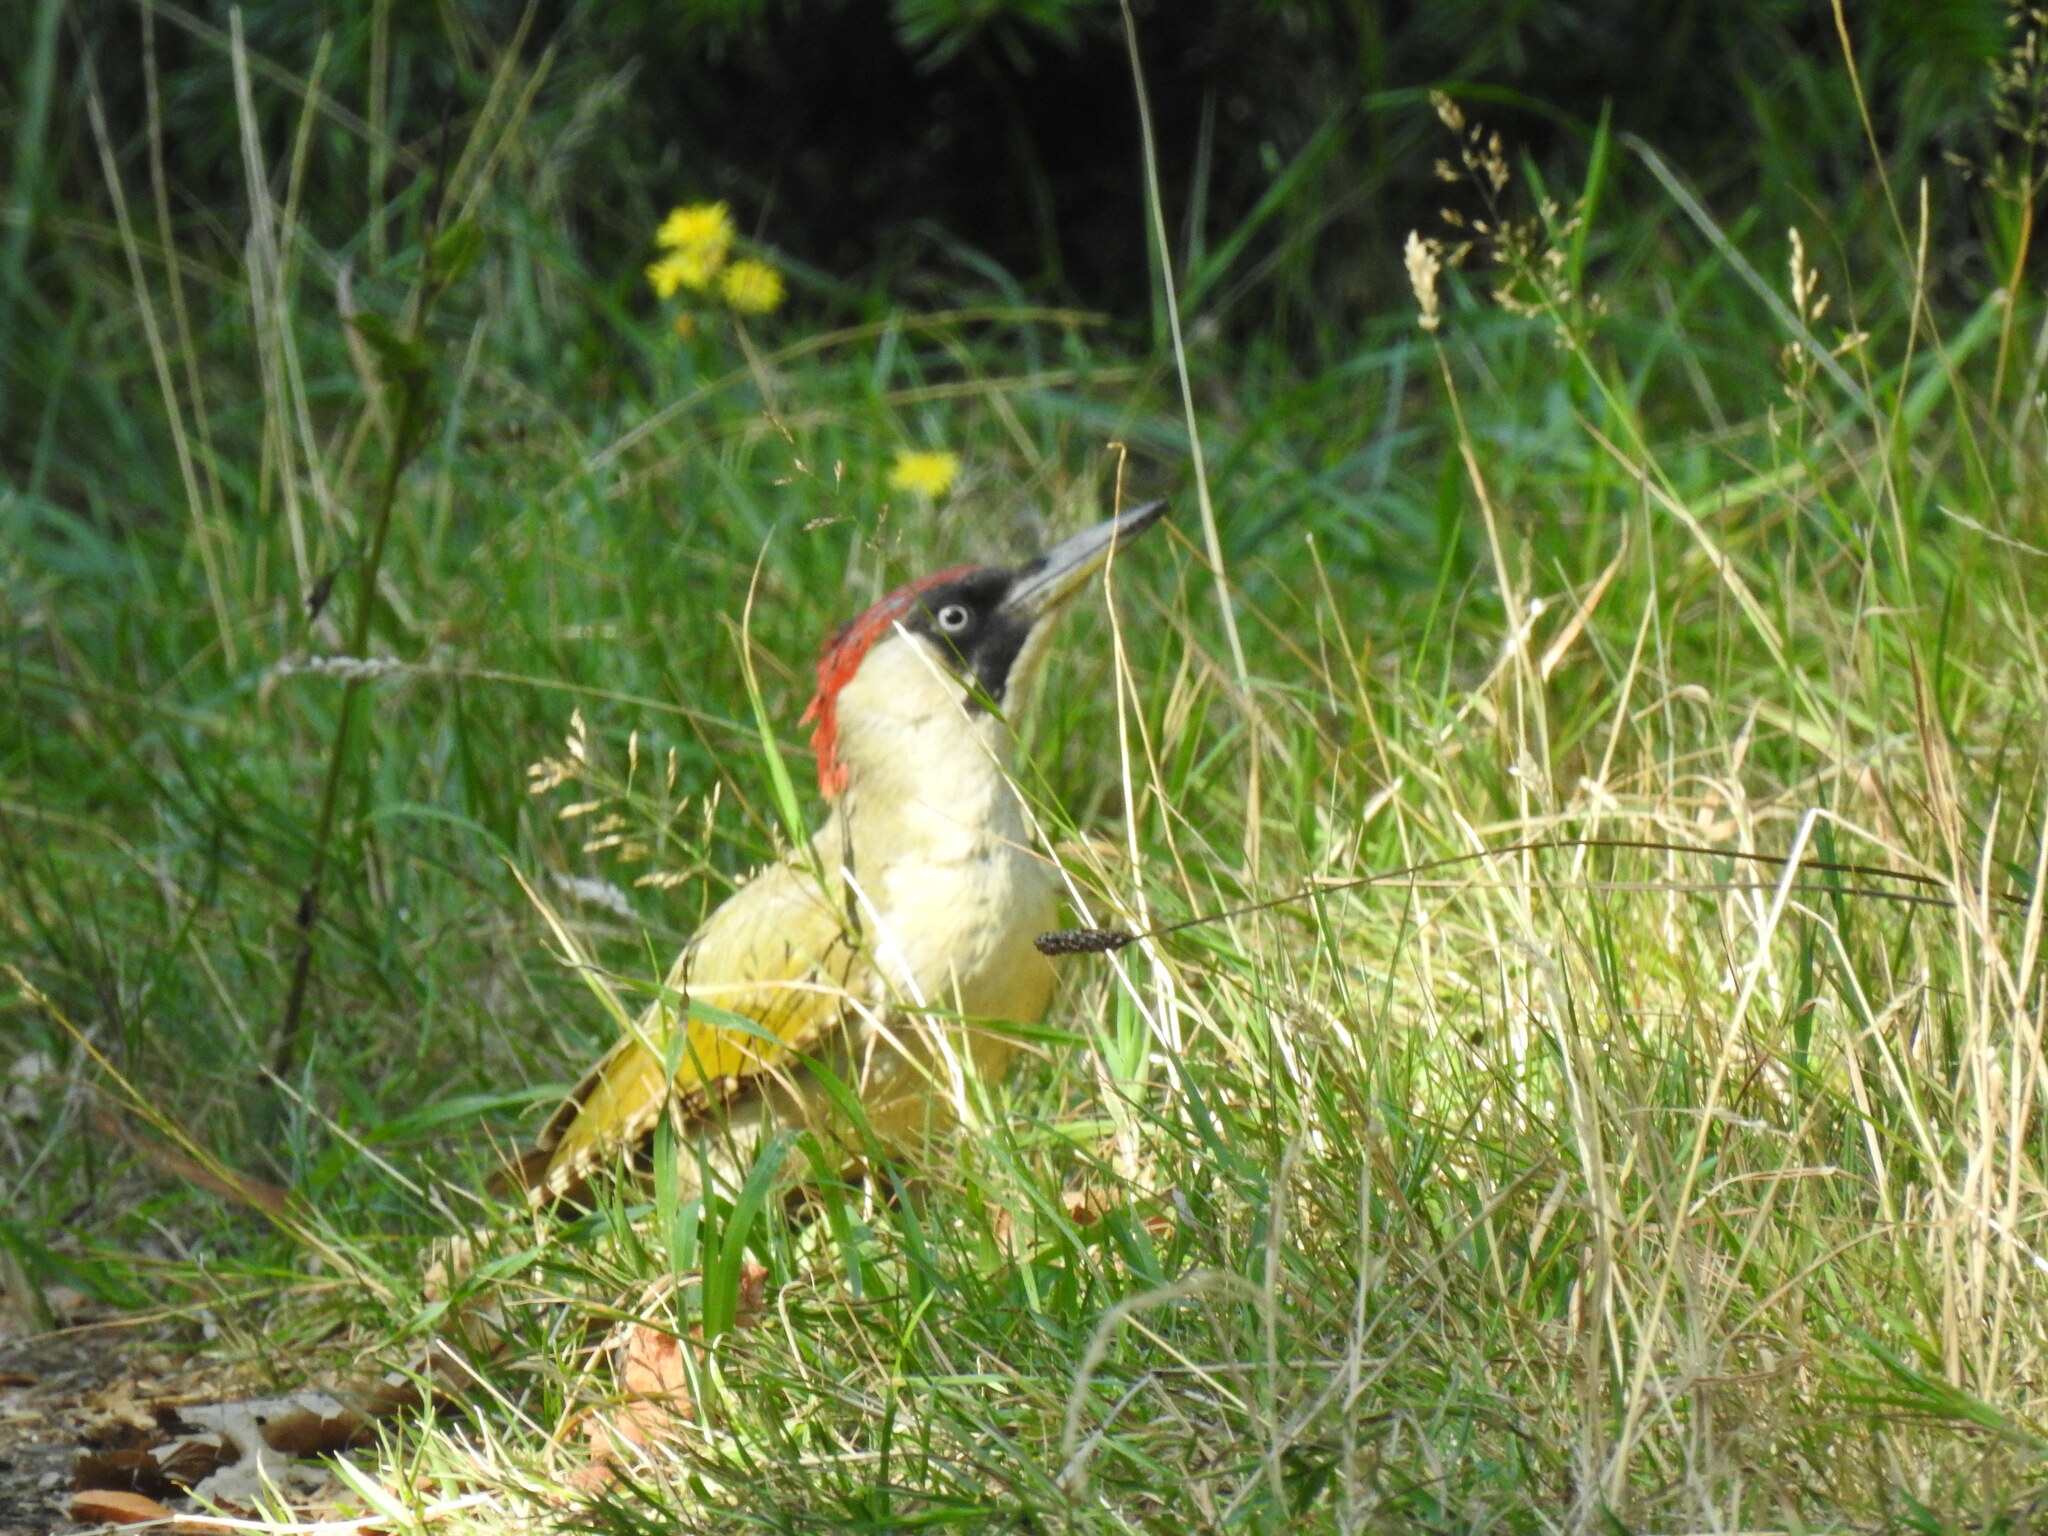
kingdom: Animalia
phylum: Chordata
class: Aves
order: Piciformes
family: Picidae
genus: Picus
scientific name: Picus viridis
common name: European green woodpecker
